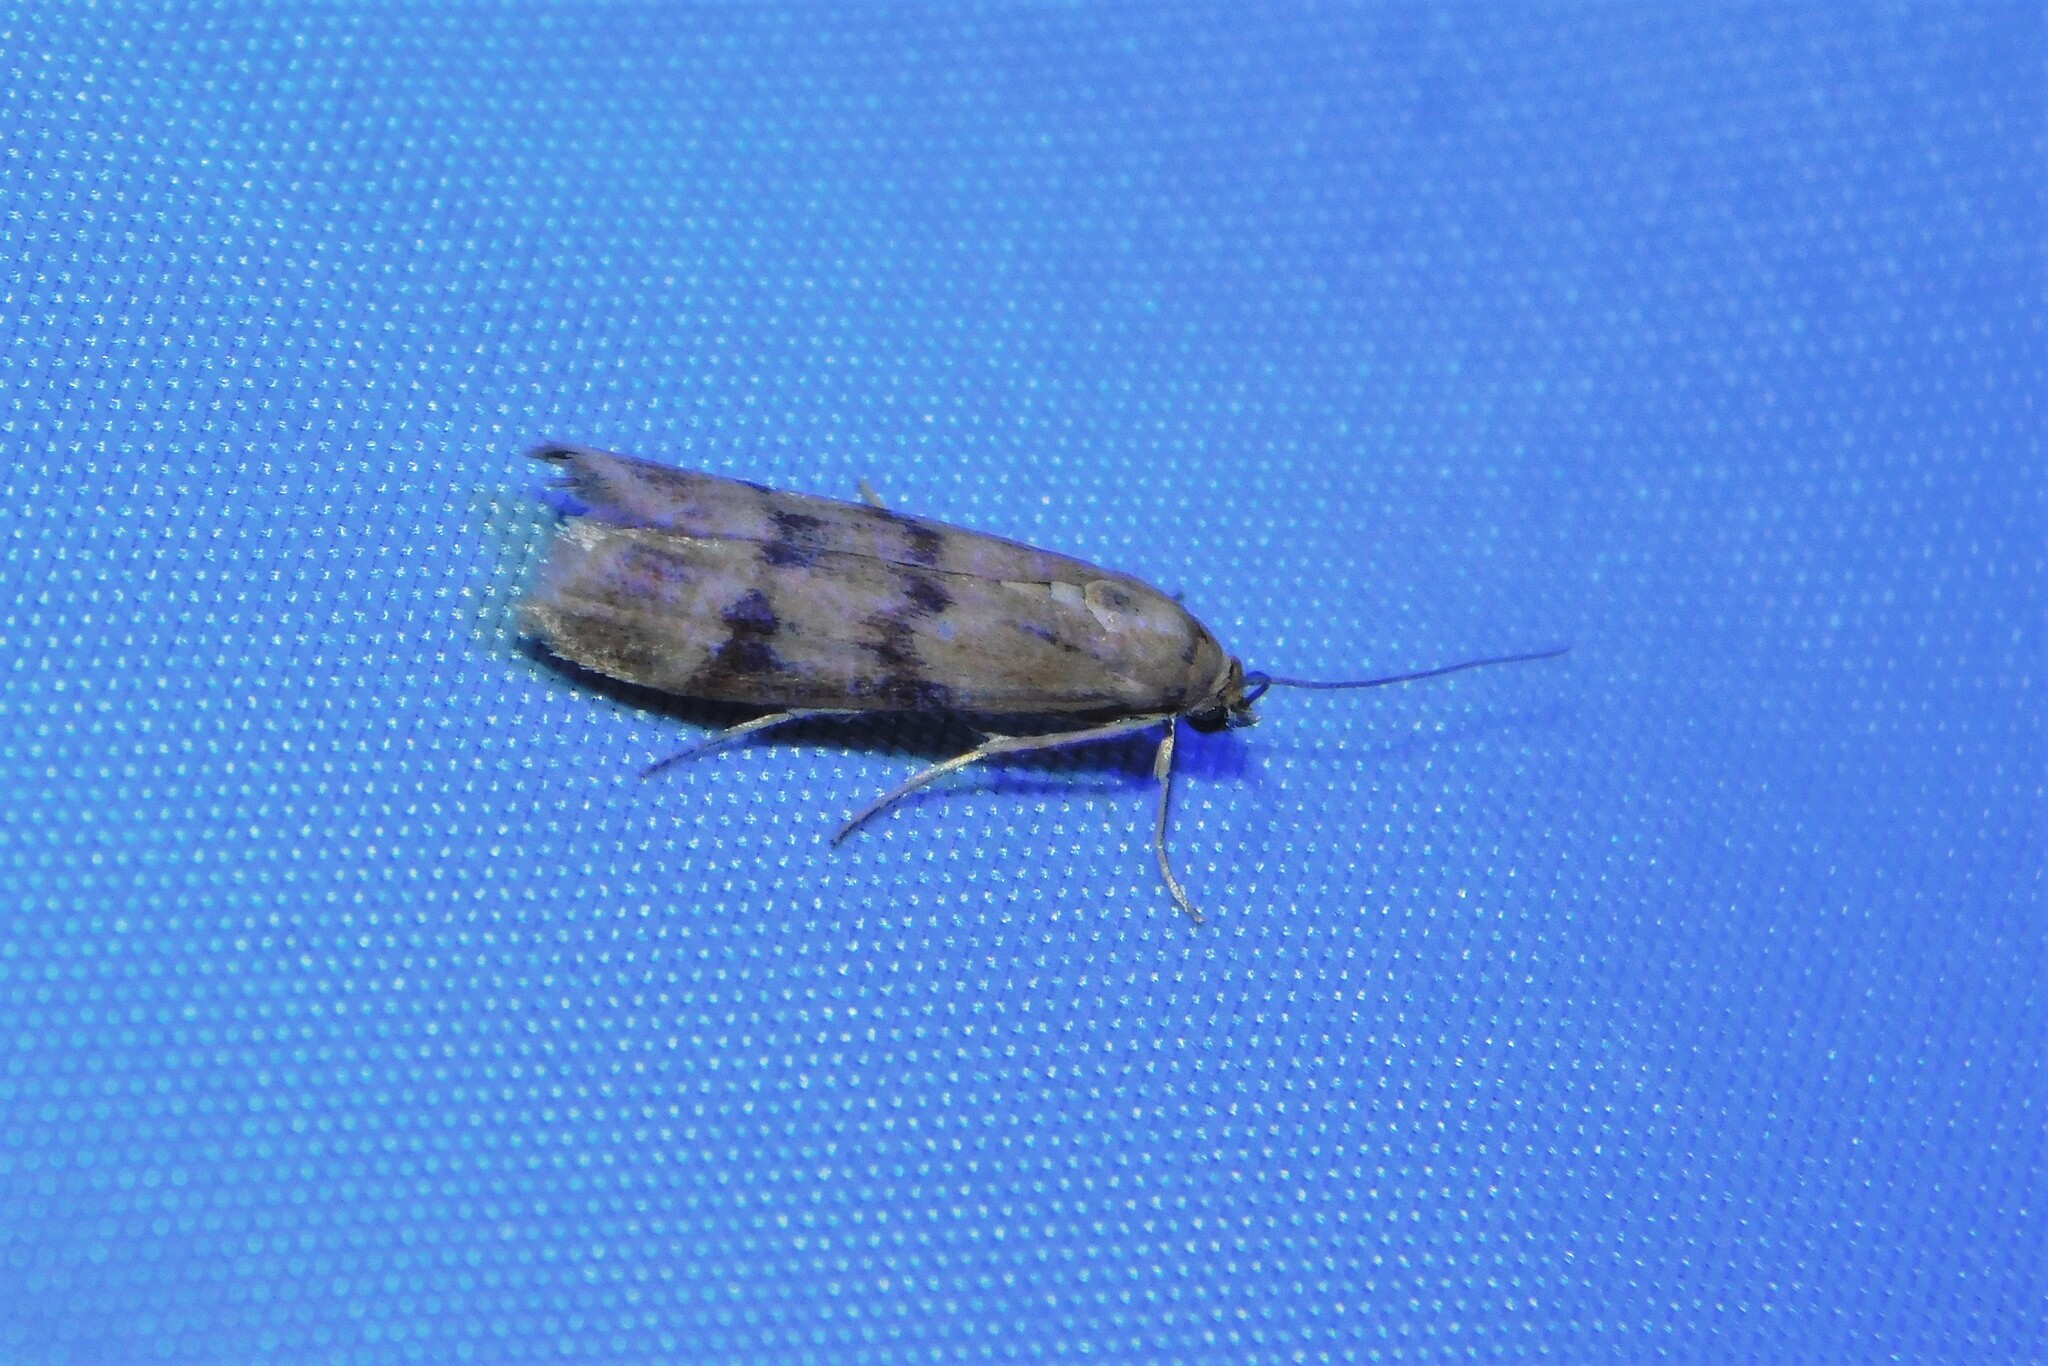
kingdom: Animalia
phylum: Arthropoda
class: Insecta
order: Lepidoptera
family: Pyralidae
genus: Homoeosoma
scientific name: Homoeosoma sinuella
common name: Twin-barred knot-horn
